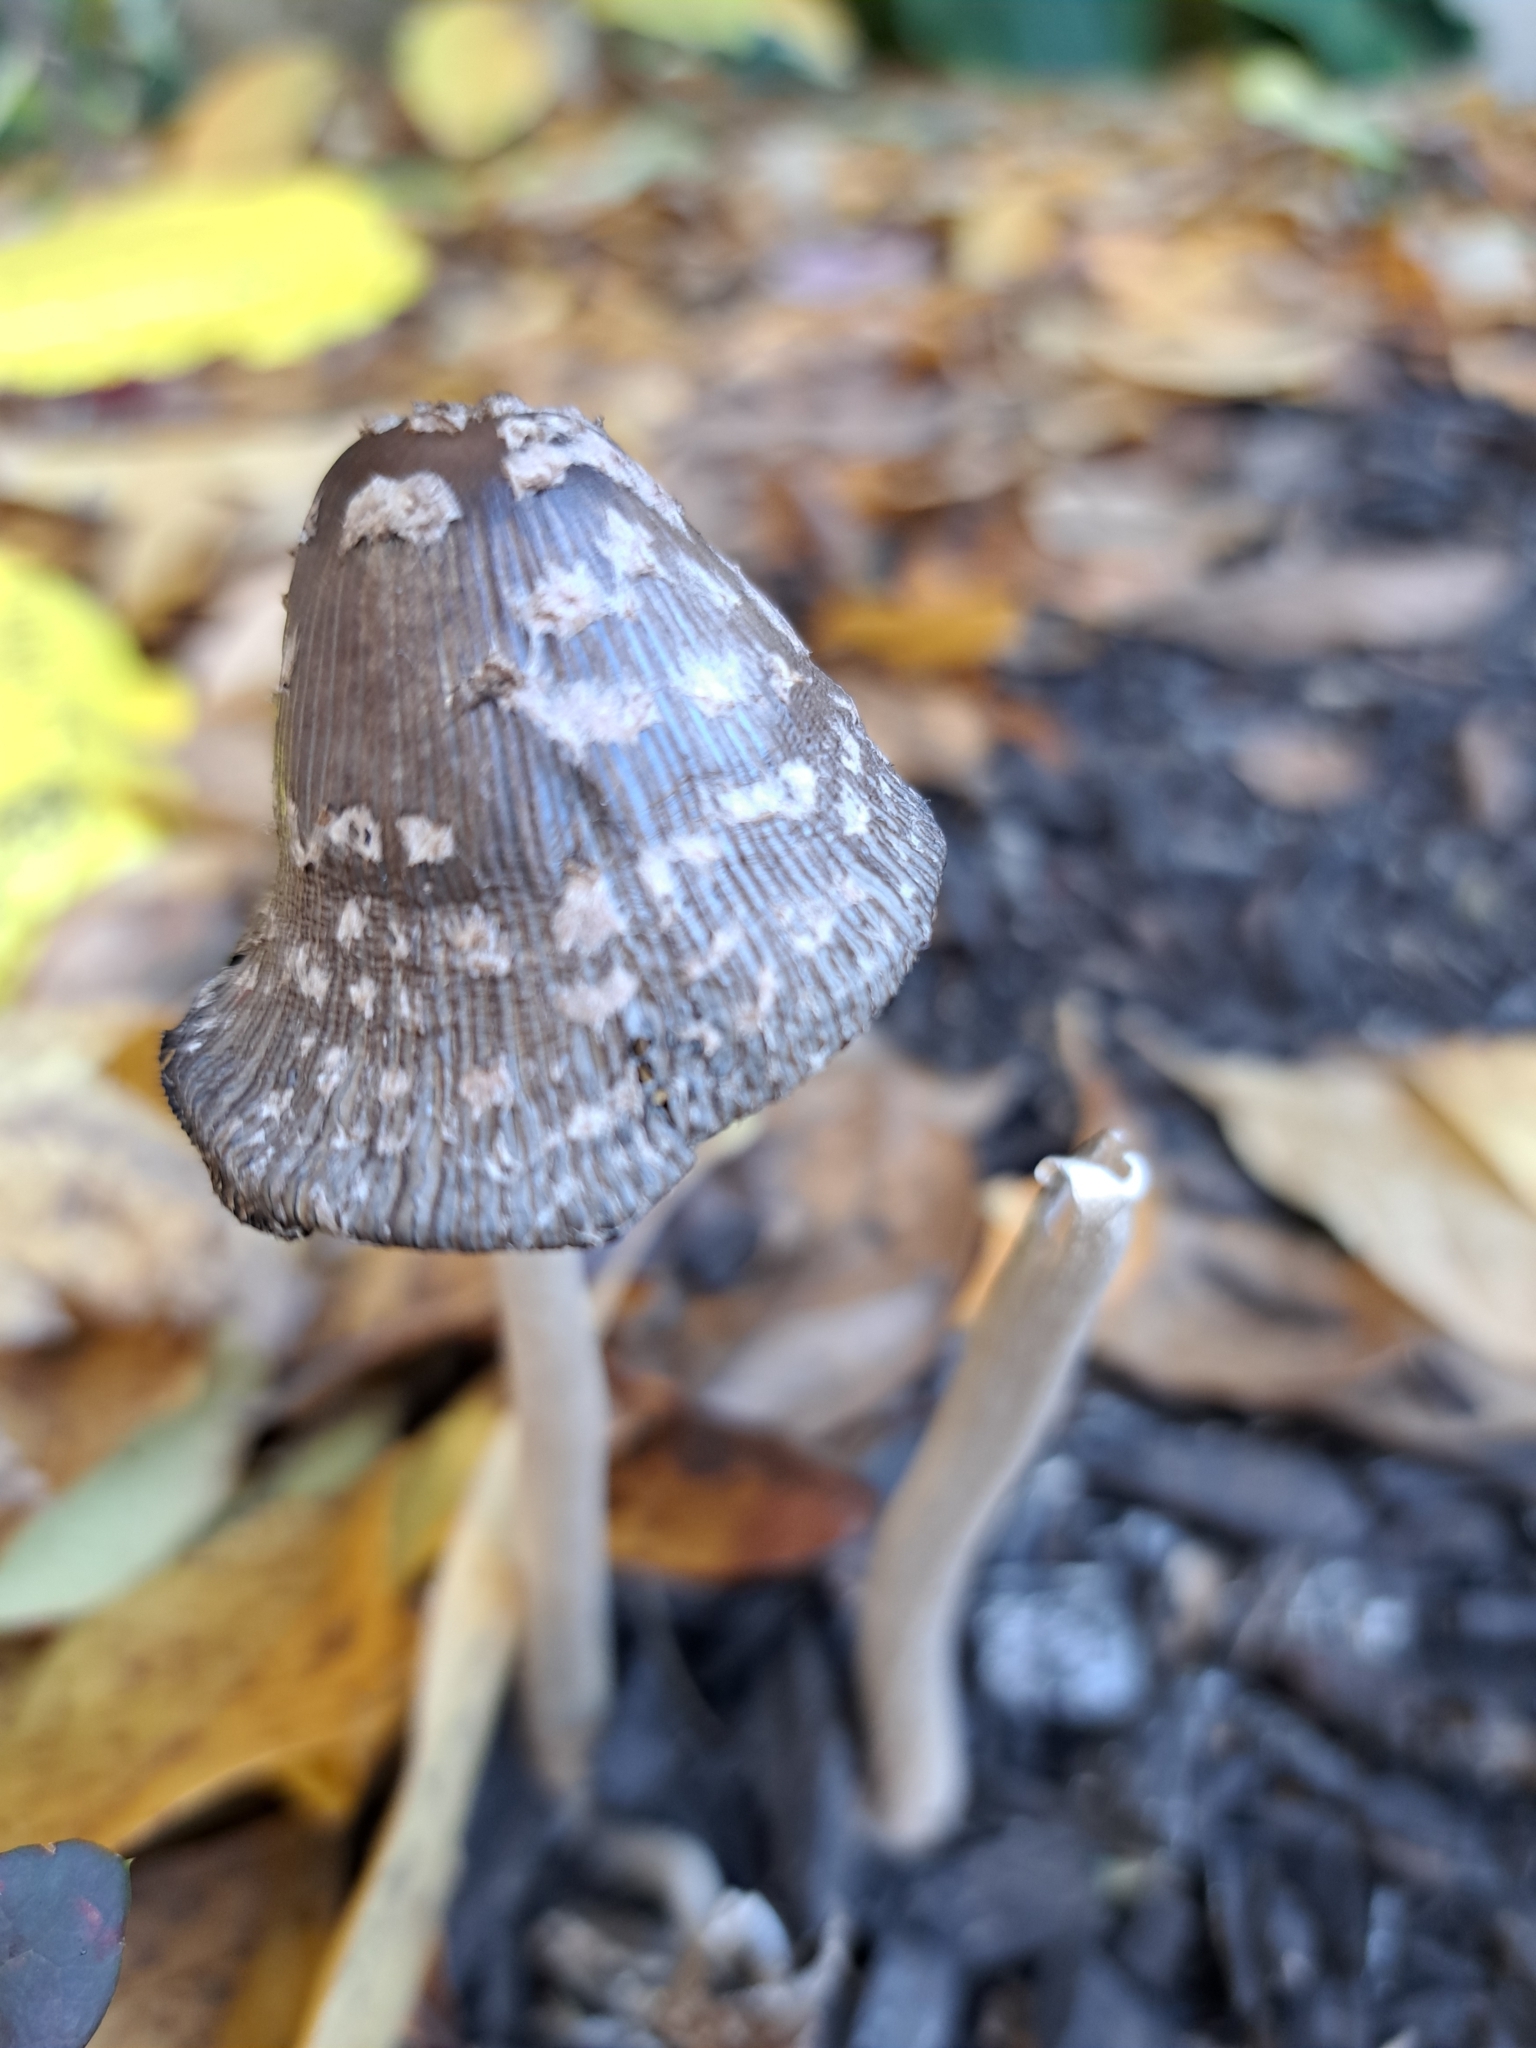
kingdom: Fungi
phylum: Basidiomycota
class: Agaricomycetes
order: Agaricales
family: Psathyrellaceae
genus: Coprinopsis
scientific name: Coprinopsis picacea
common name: Magpie inkcap
